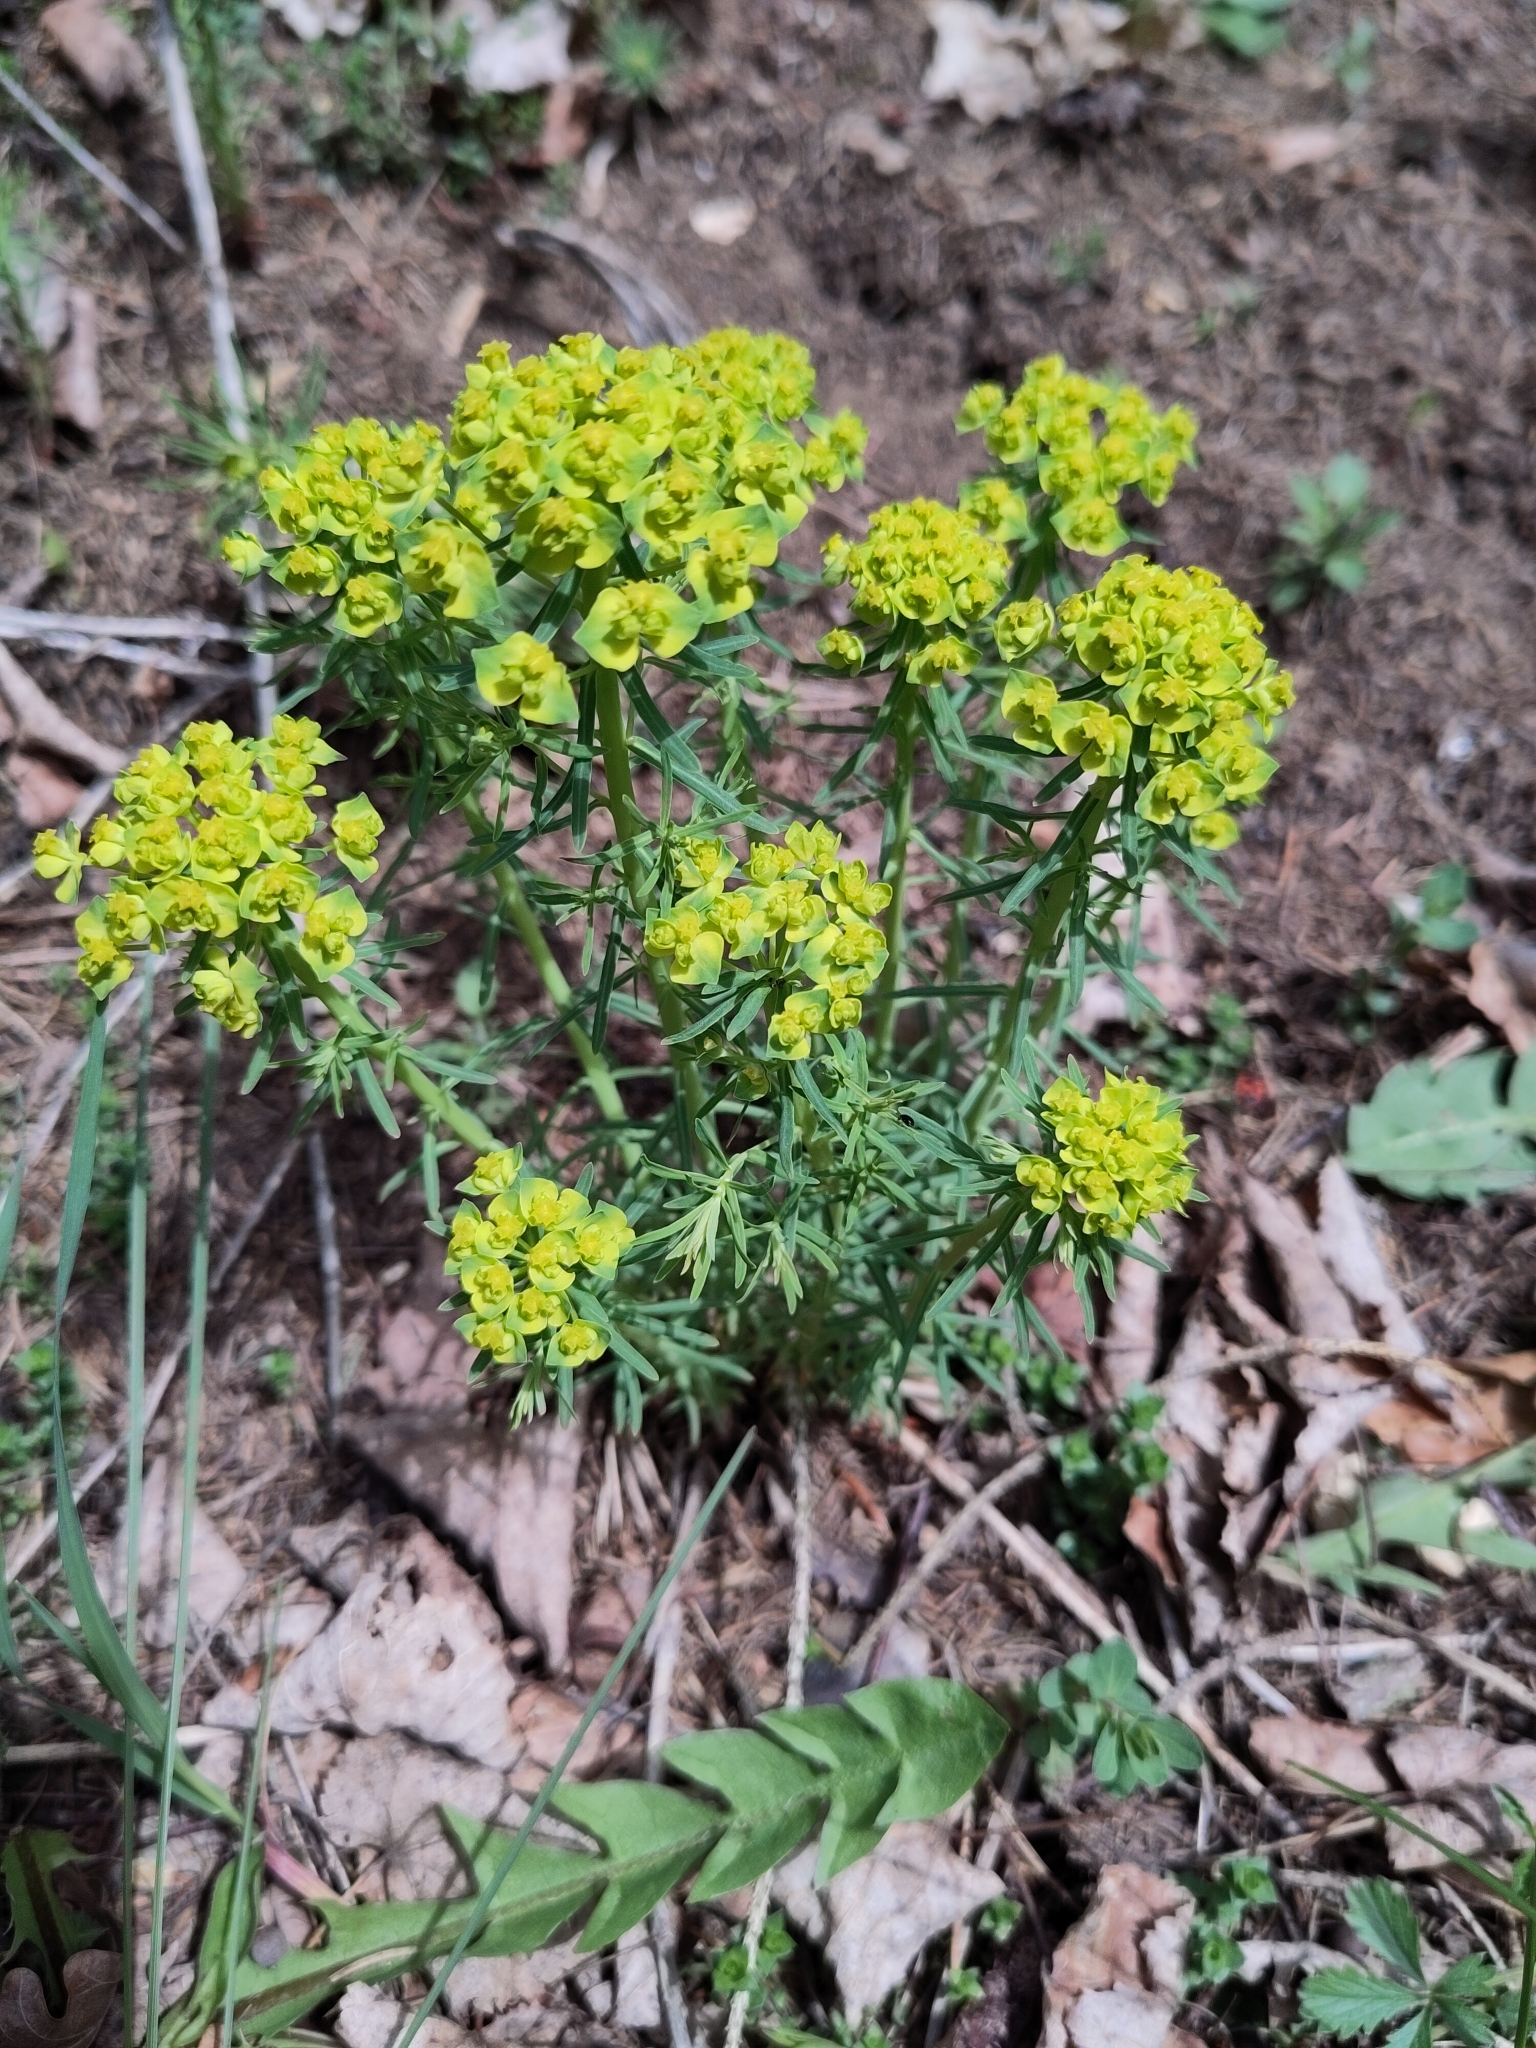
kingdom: Plantae
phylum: Tracheophyta
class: Magnoliopsida
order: Malpighiales
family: Euphorbiaceae
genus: Euphorbia
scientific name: Euphorbia cyparissias
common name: Cypress spurge
